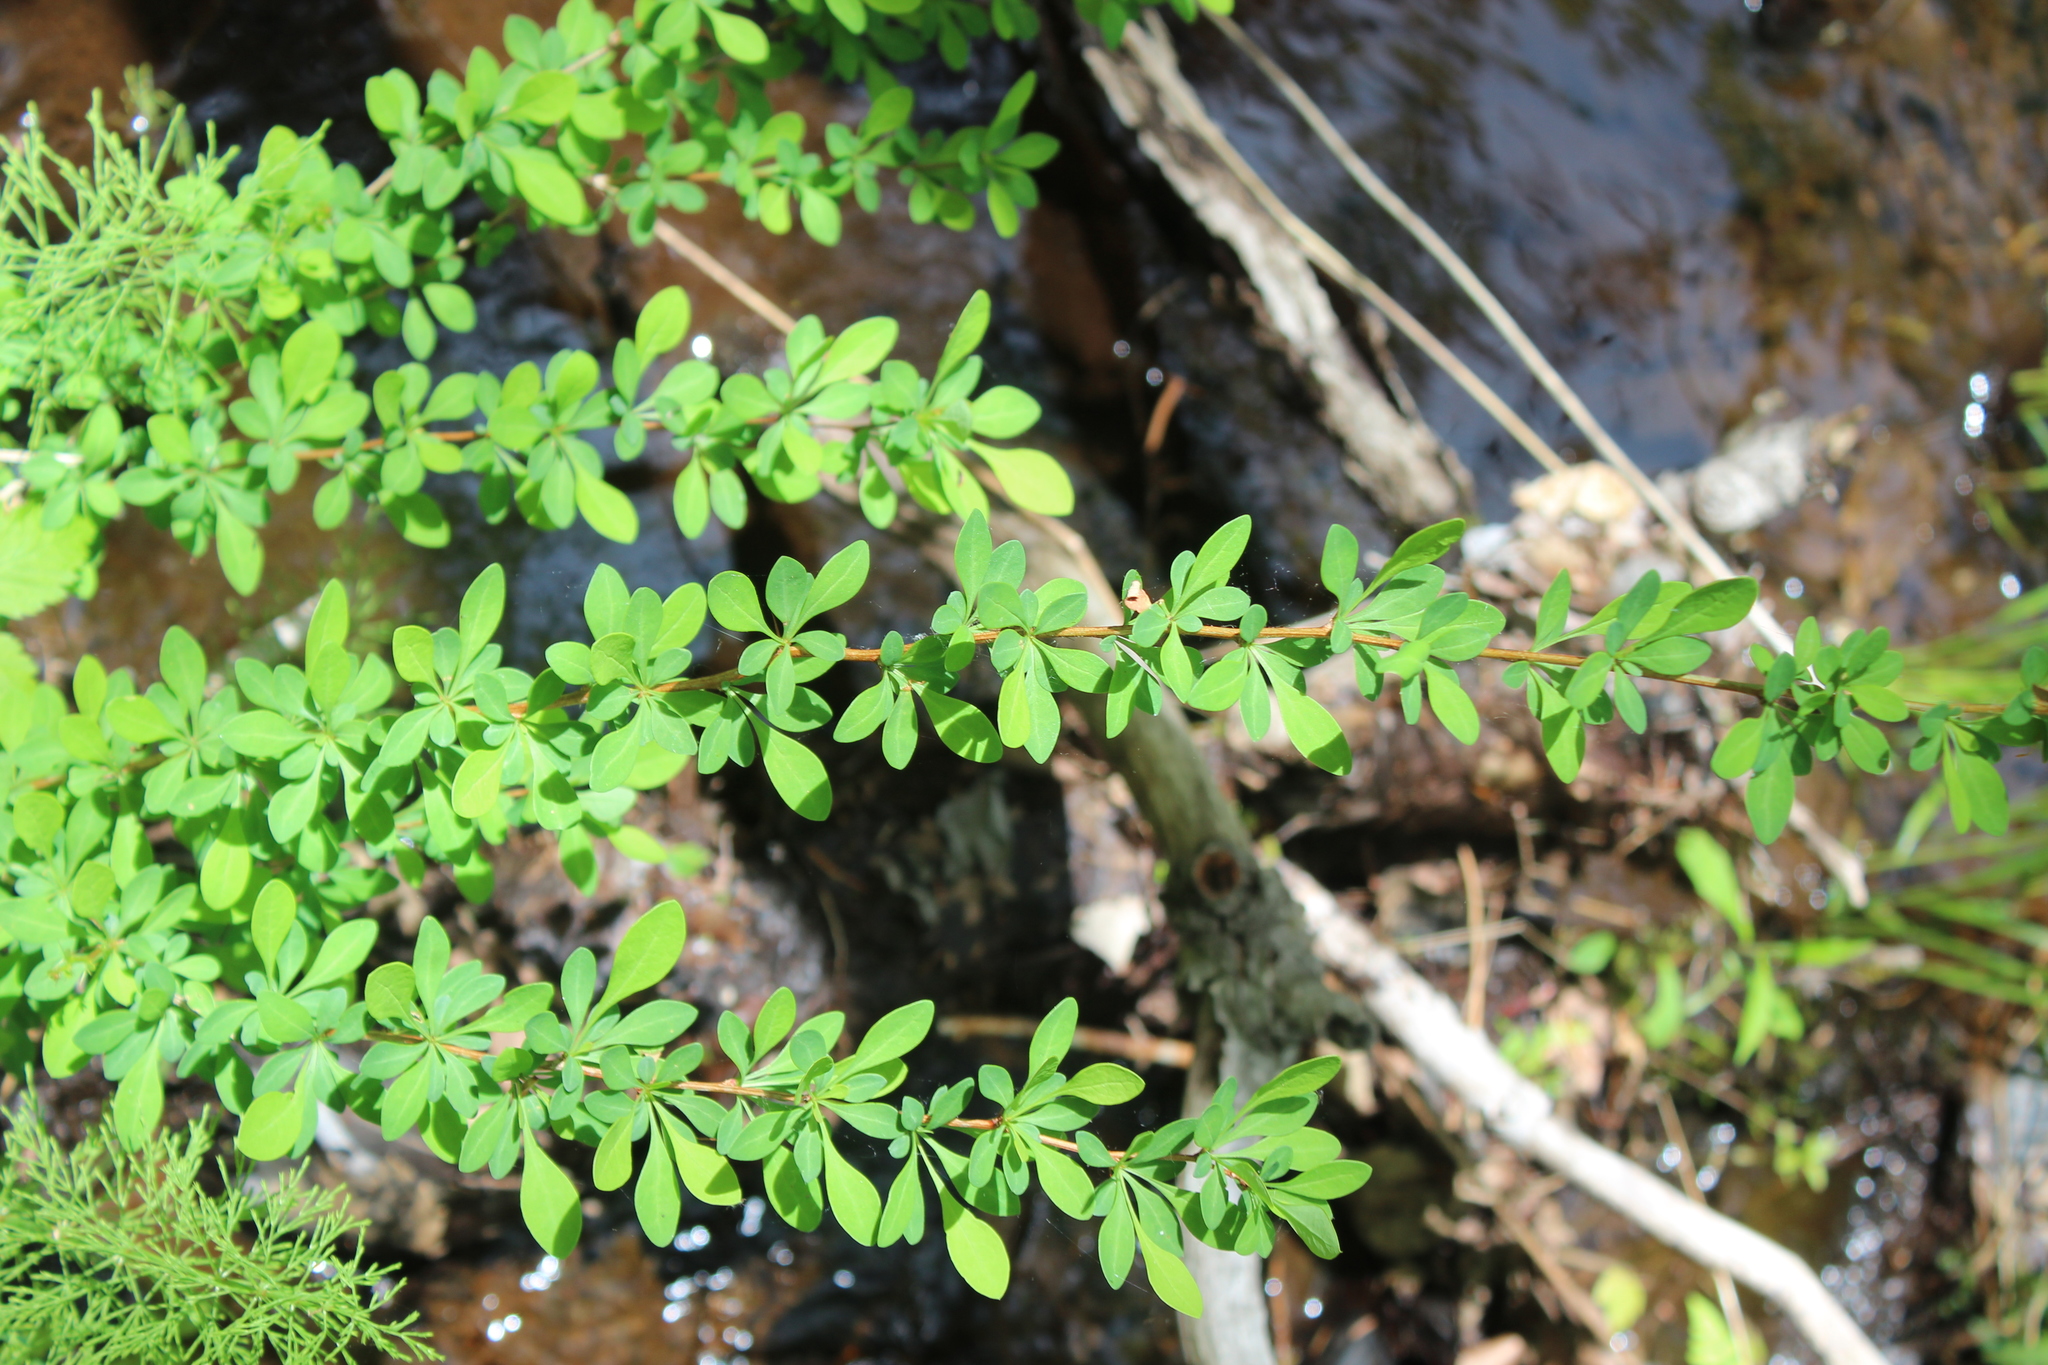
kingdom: Plantae
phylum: Tracheophyta
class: Magnoliopsida
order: Ranunculales
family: Berberidaceae
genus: Berberis
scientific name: Berberis thunbergii
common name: Japanese barberry
